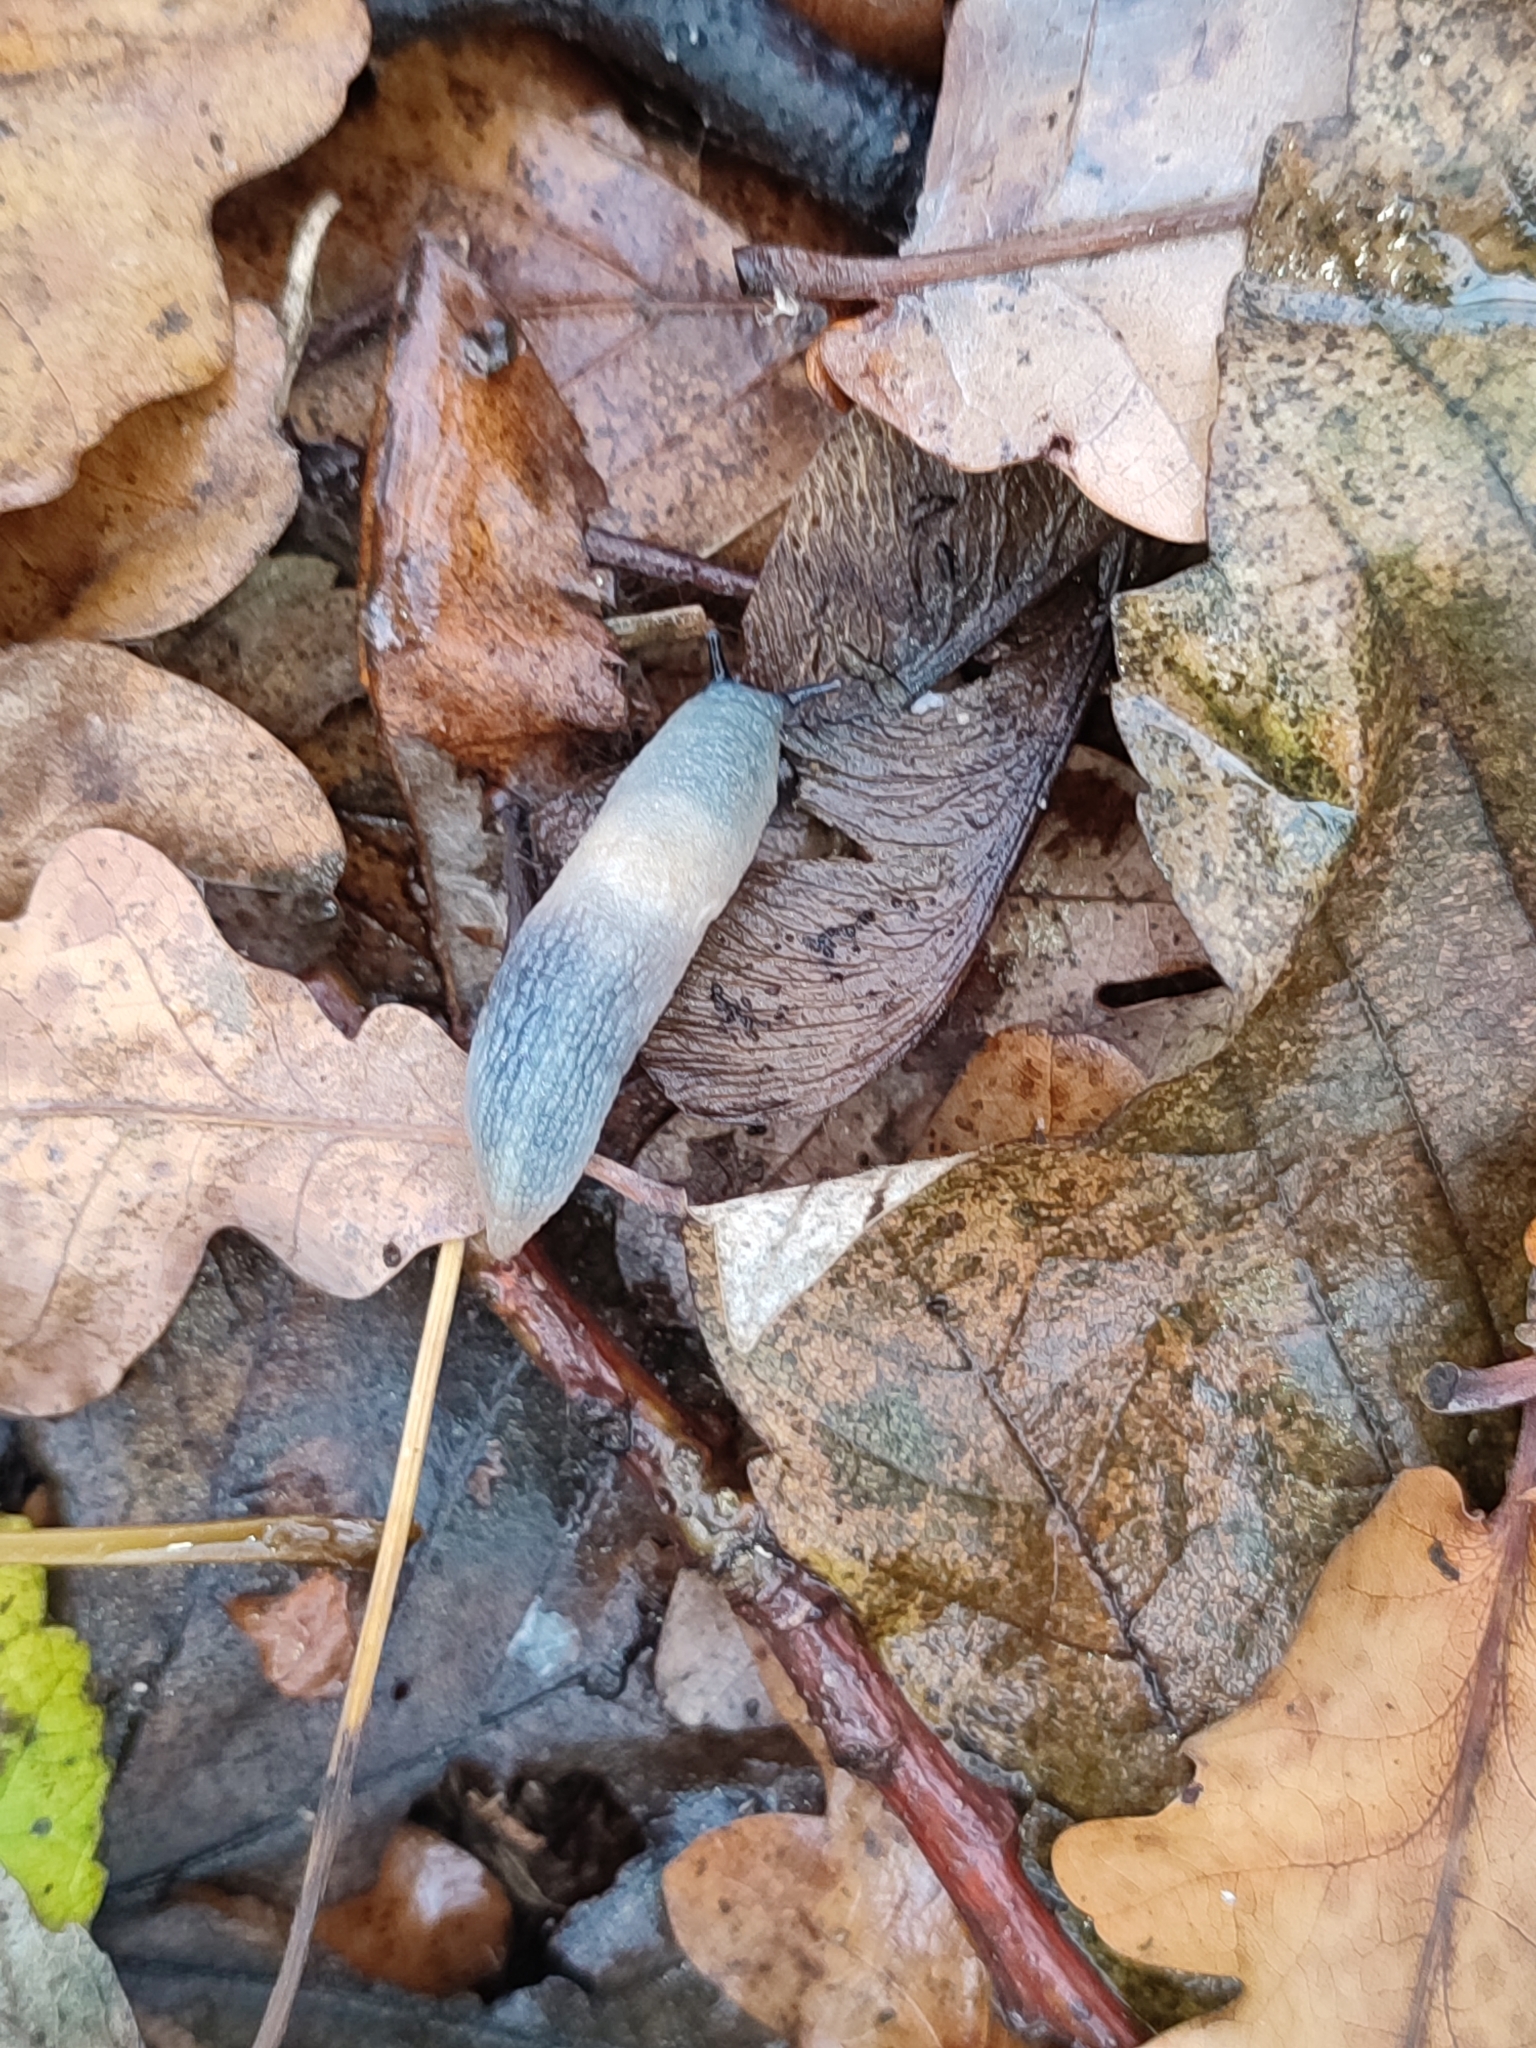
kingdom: Animalia
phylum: Mollusca
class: Gastropoda
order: Stylommatophora
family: Agriolimacidae
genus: Krynickillus
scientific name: Krynickillus melanocephalus
